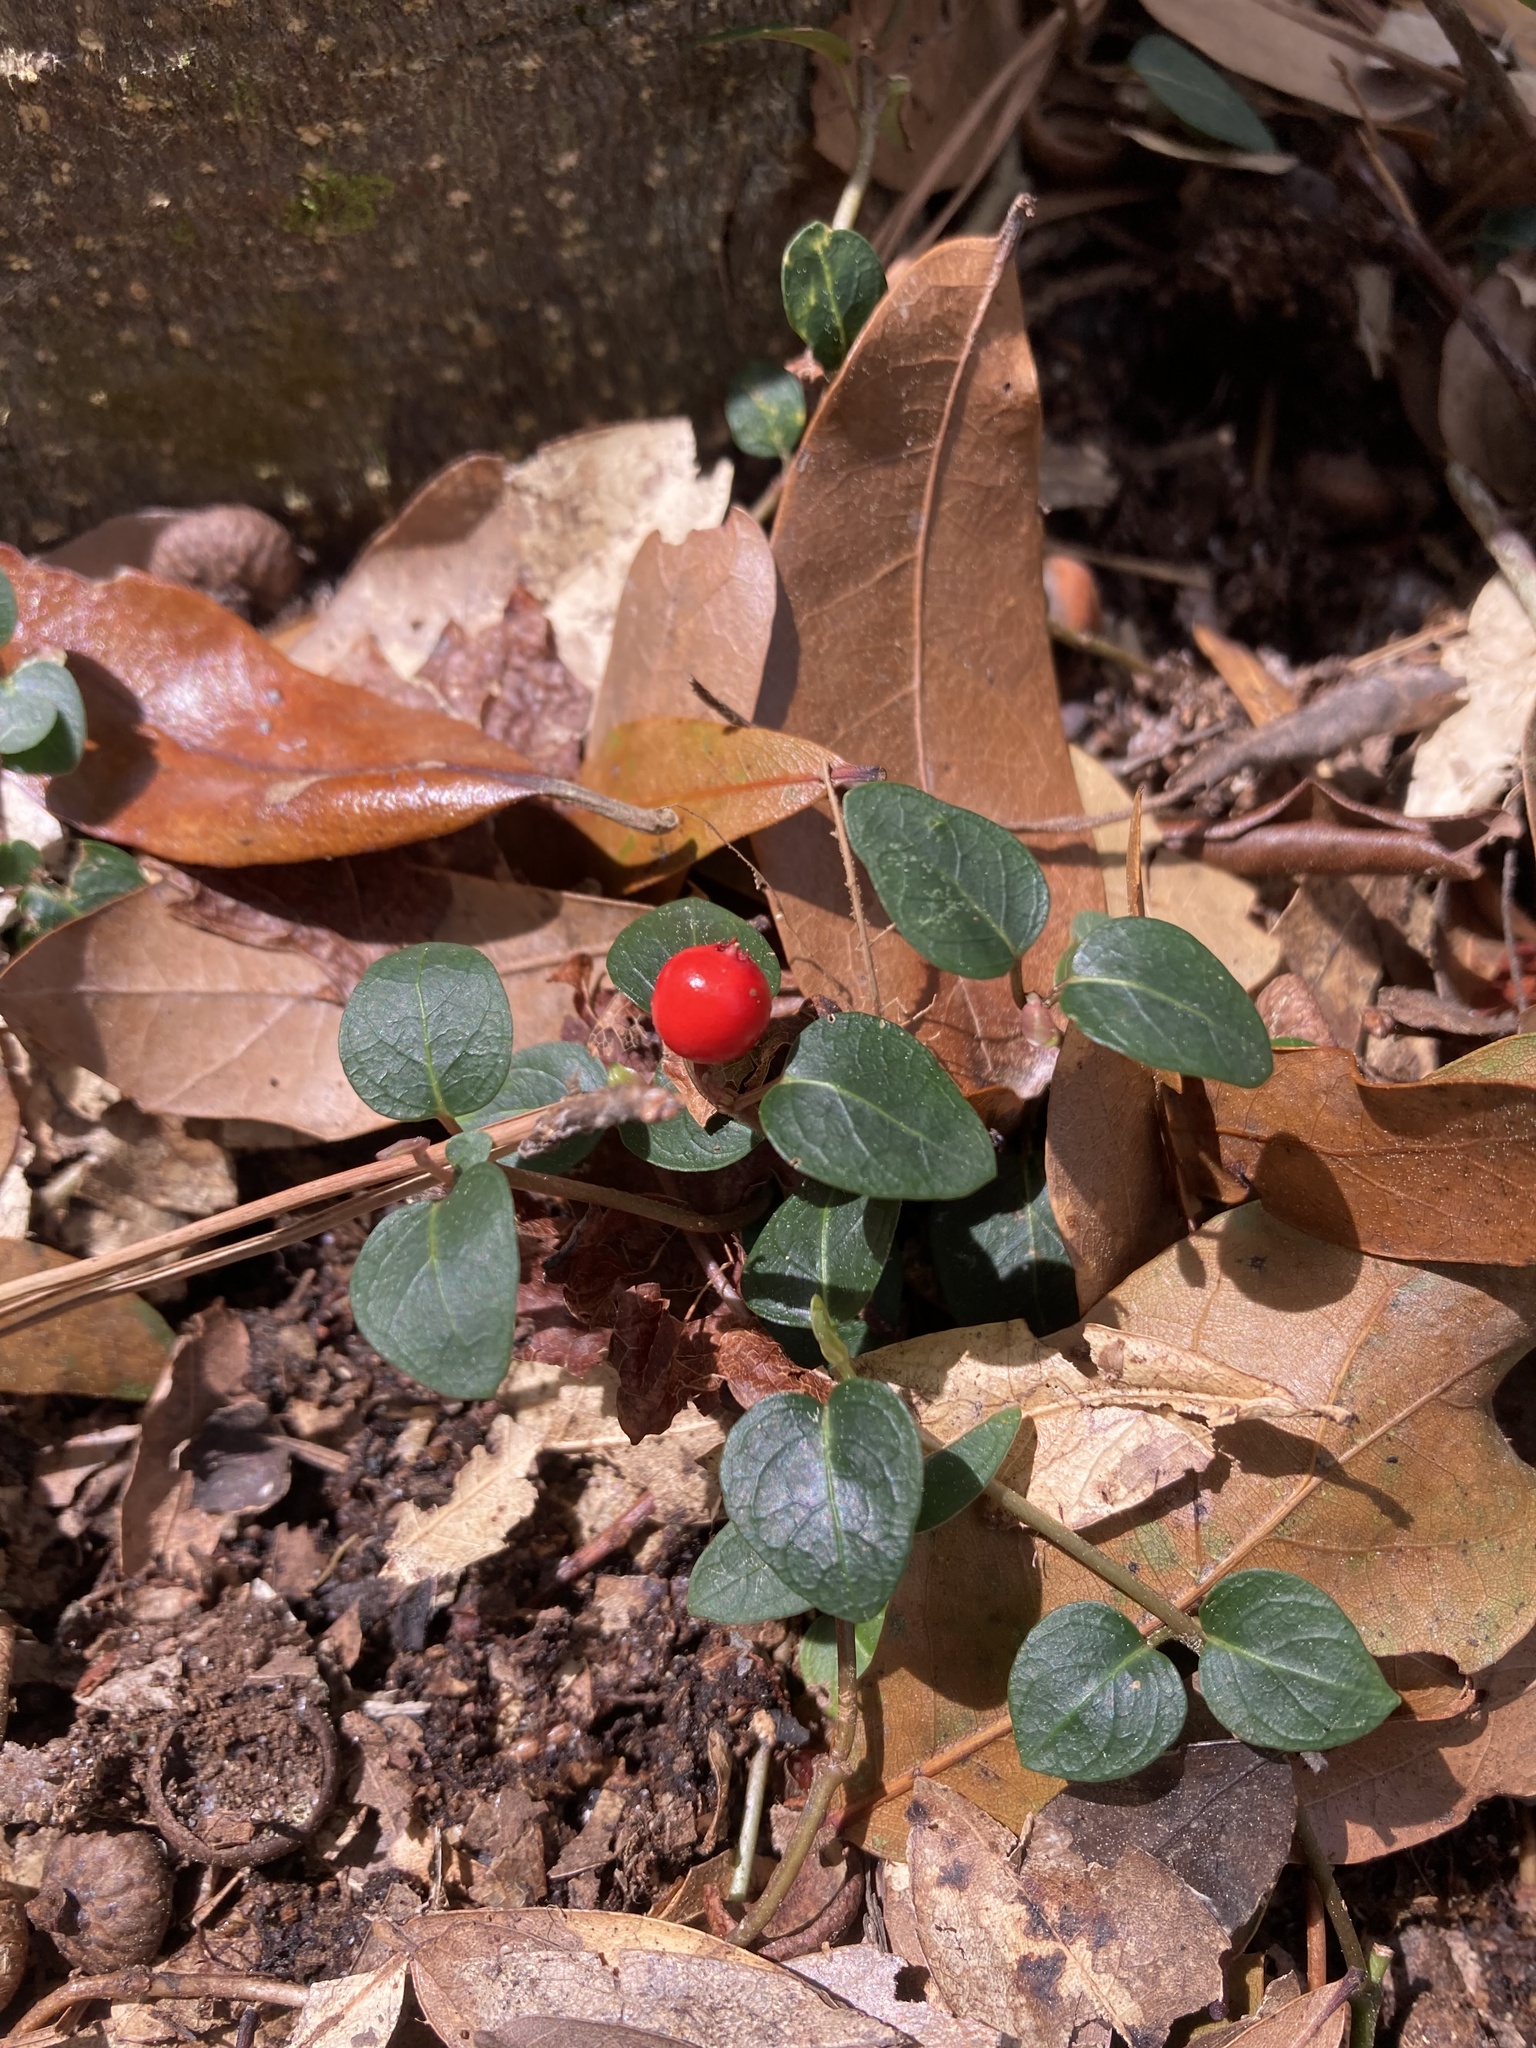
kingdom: Plantae
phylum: Tracheophyta
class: Magnoliopsida
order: Gentianales
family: Rubiaceae
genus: Mitchella
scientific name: Mitchella repens
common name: Partridge-berry
